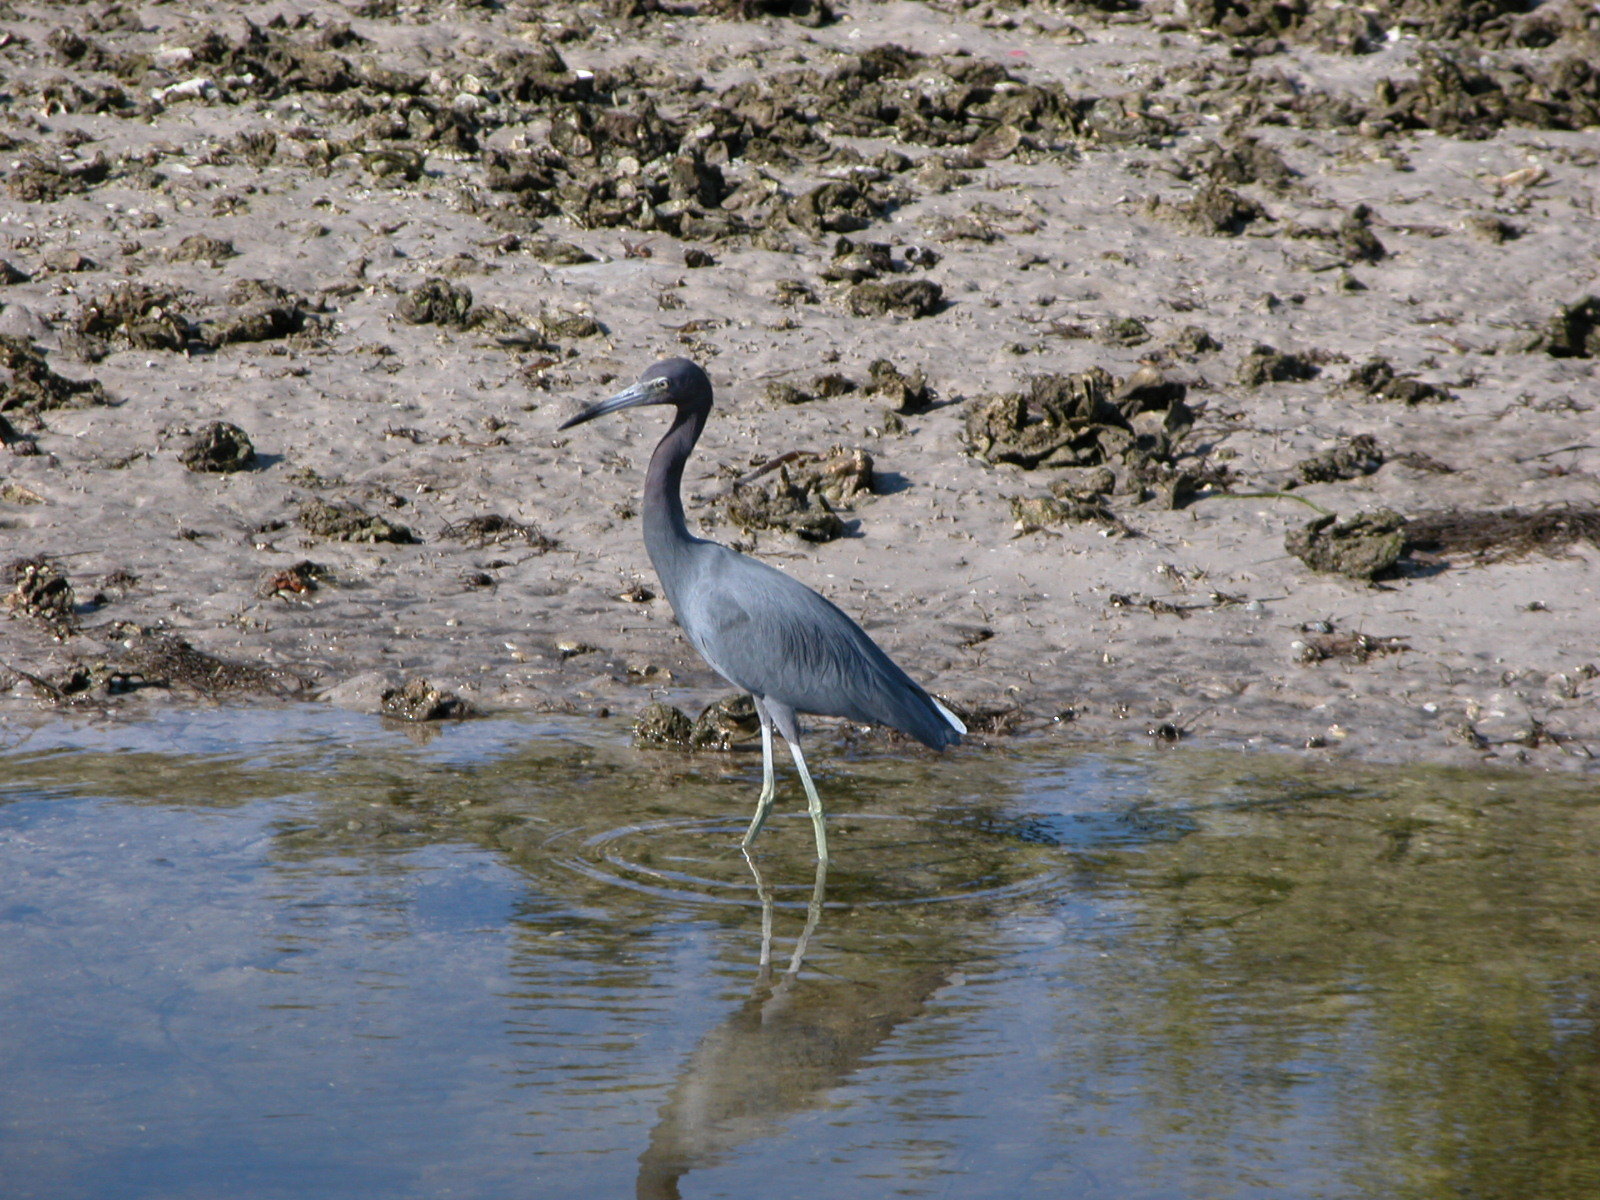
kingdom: Animalia
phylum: Chordata
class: Aves
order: Pelecaniformes
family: Ardeidae
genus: Egretta
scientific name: Egretta caerulea
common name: Little blue heron
